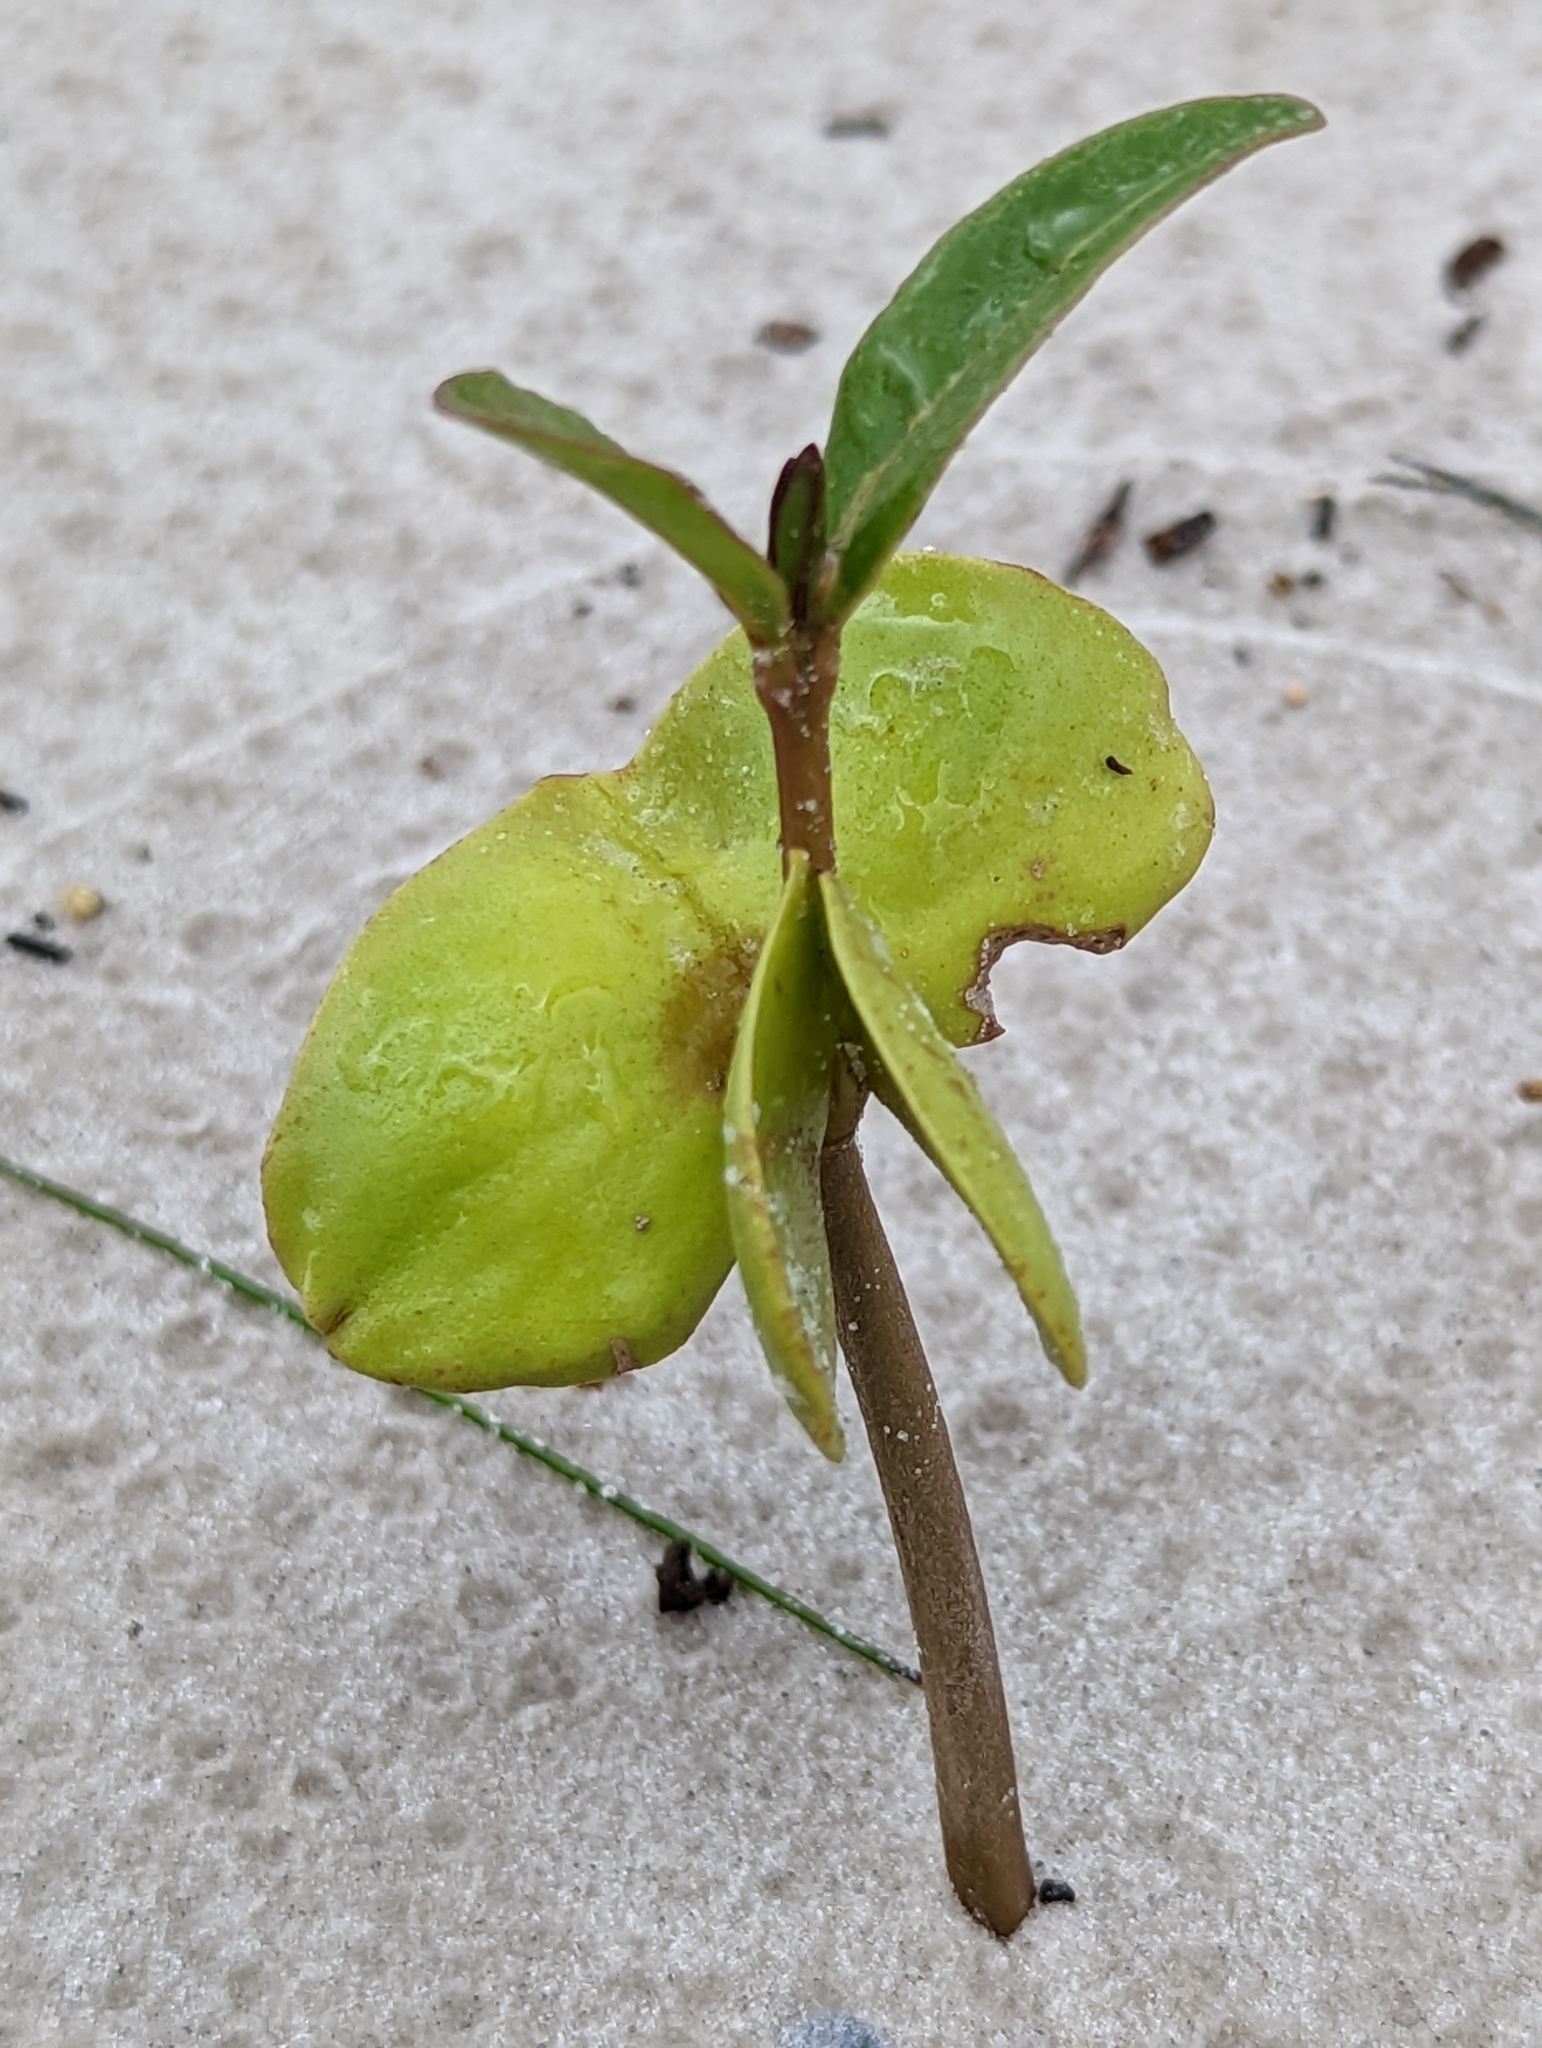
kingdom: Plantae
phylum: Tracheophyta
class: Magnoliopsida
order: Lamiales
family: Acanthaceae
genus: Avicennia
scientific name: Avicennia germinans
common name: Black mangrove
